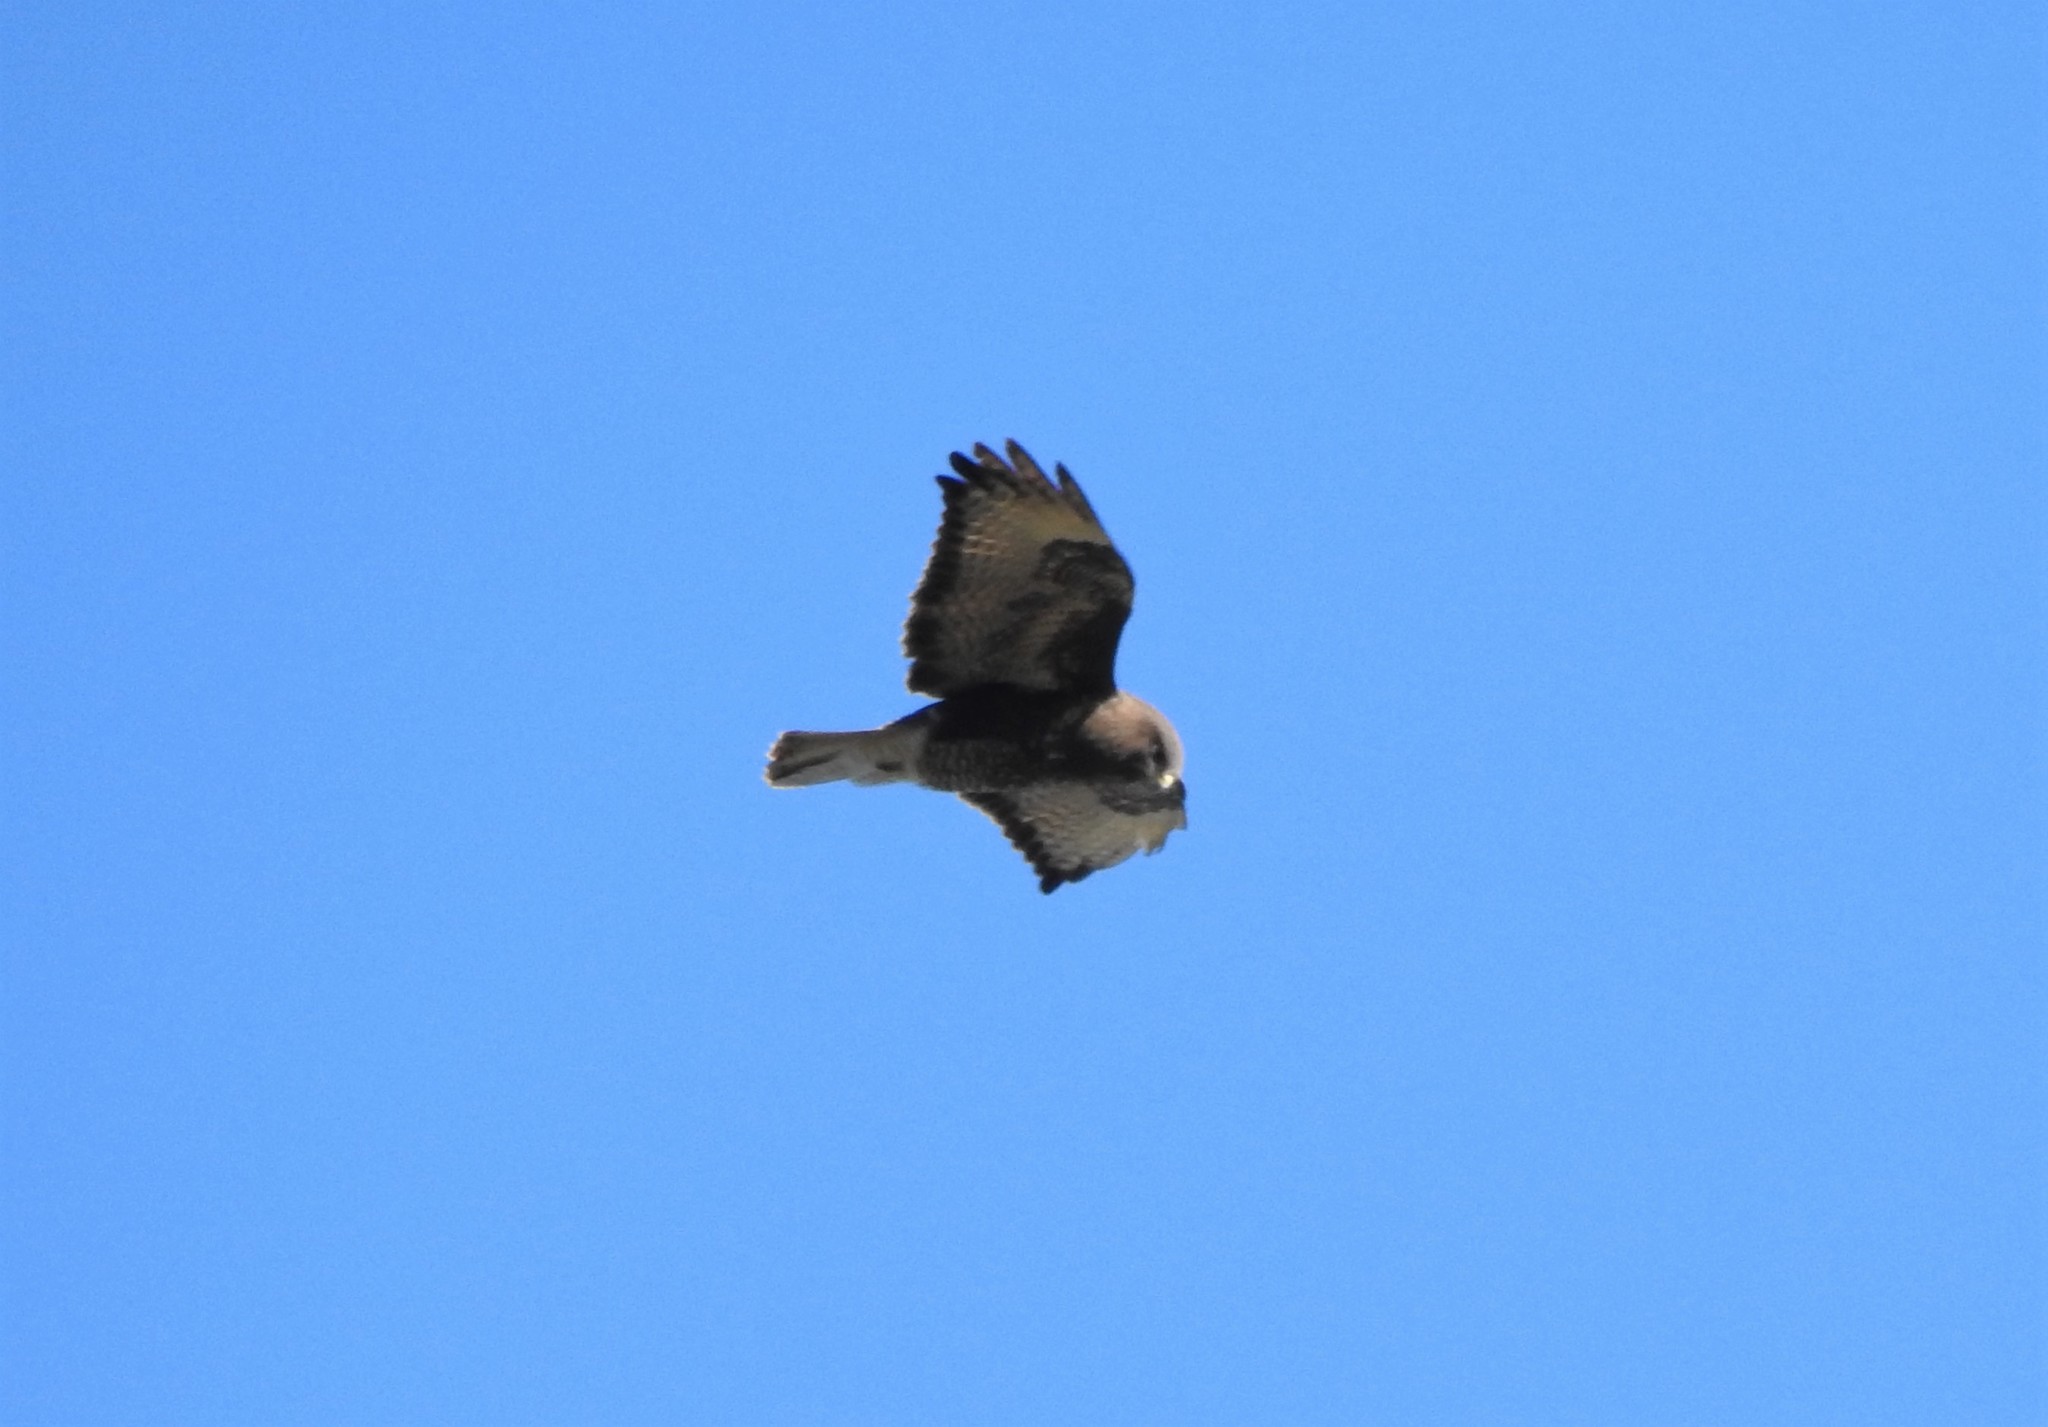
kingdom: Animalia
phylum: Chordata
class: Aves
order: Accipitriformes
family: Accipitridae
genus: Buteo
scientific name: Buteo buteo
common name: Common buzzard
